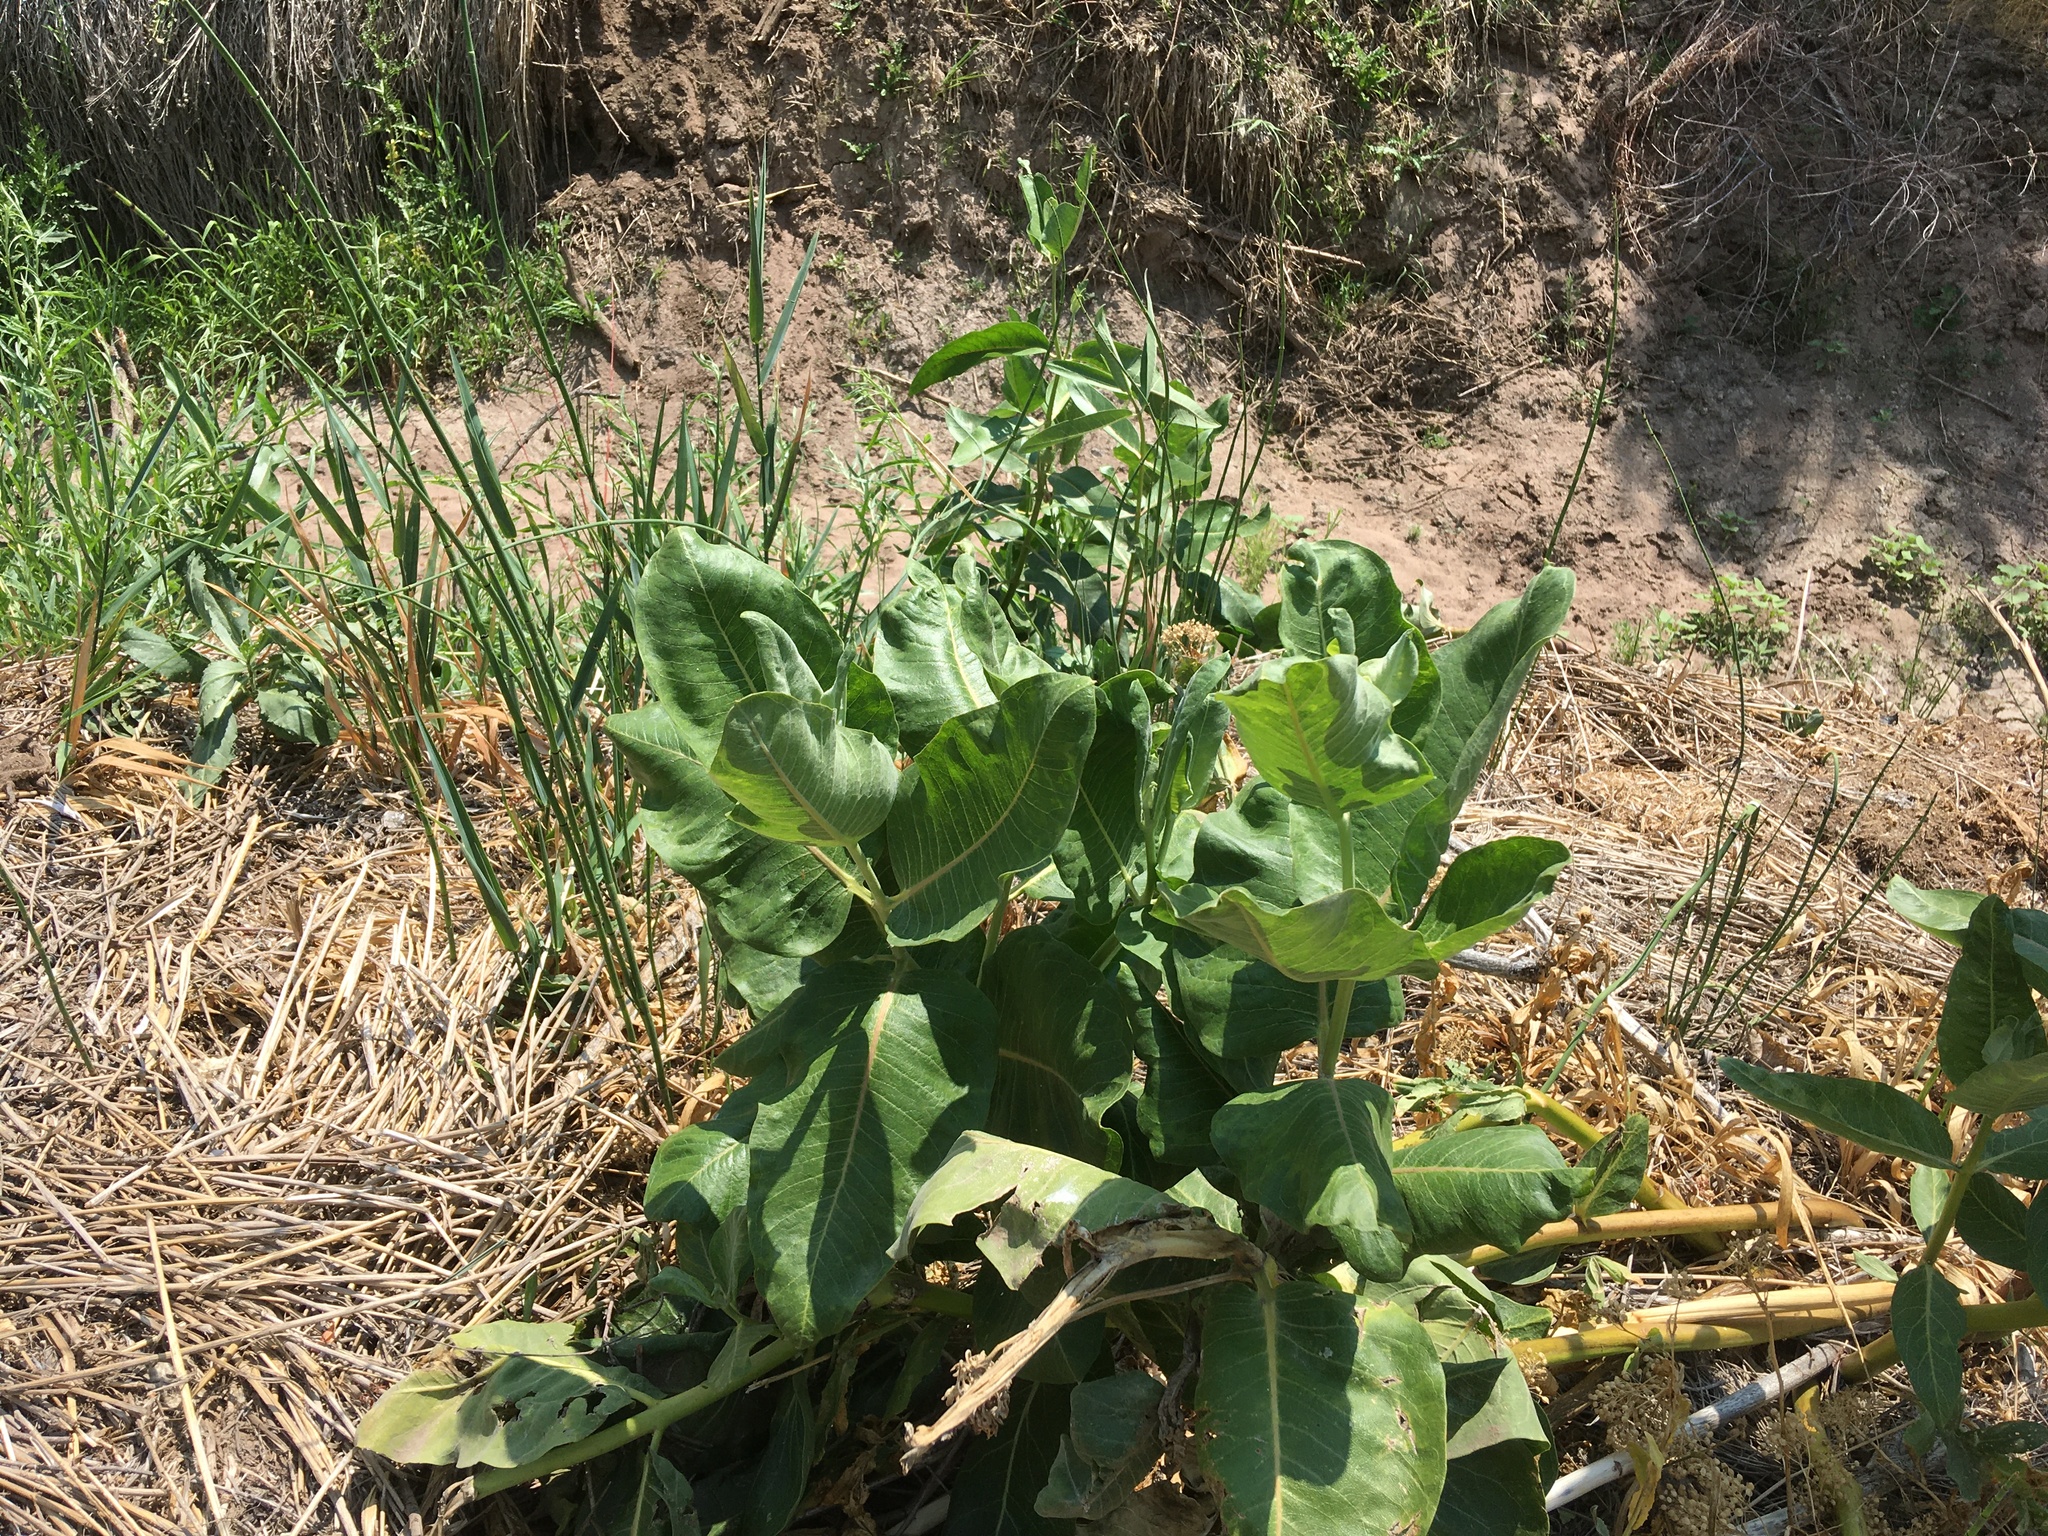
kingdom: Plantae
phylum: Tracheophyta
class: Magnoliopsida
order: Gentianales
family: Apocynaceae
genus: Asclepias
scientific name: Asclepias speciosa
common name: Showy milkweed
